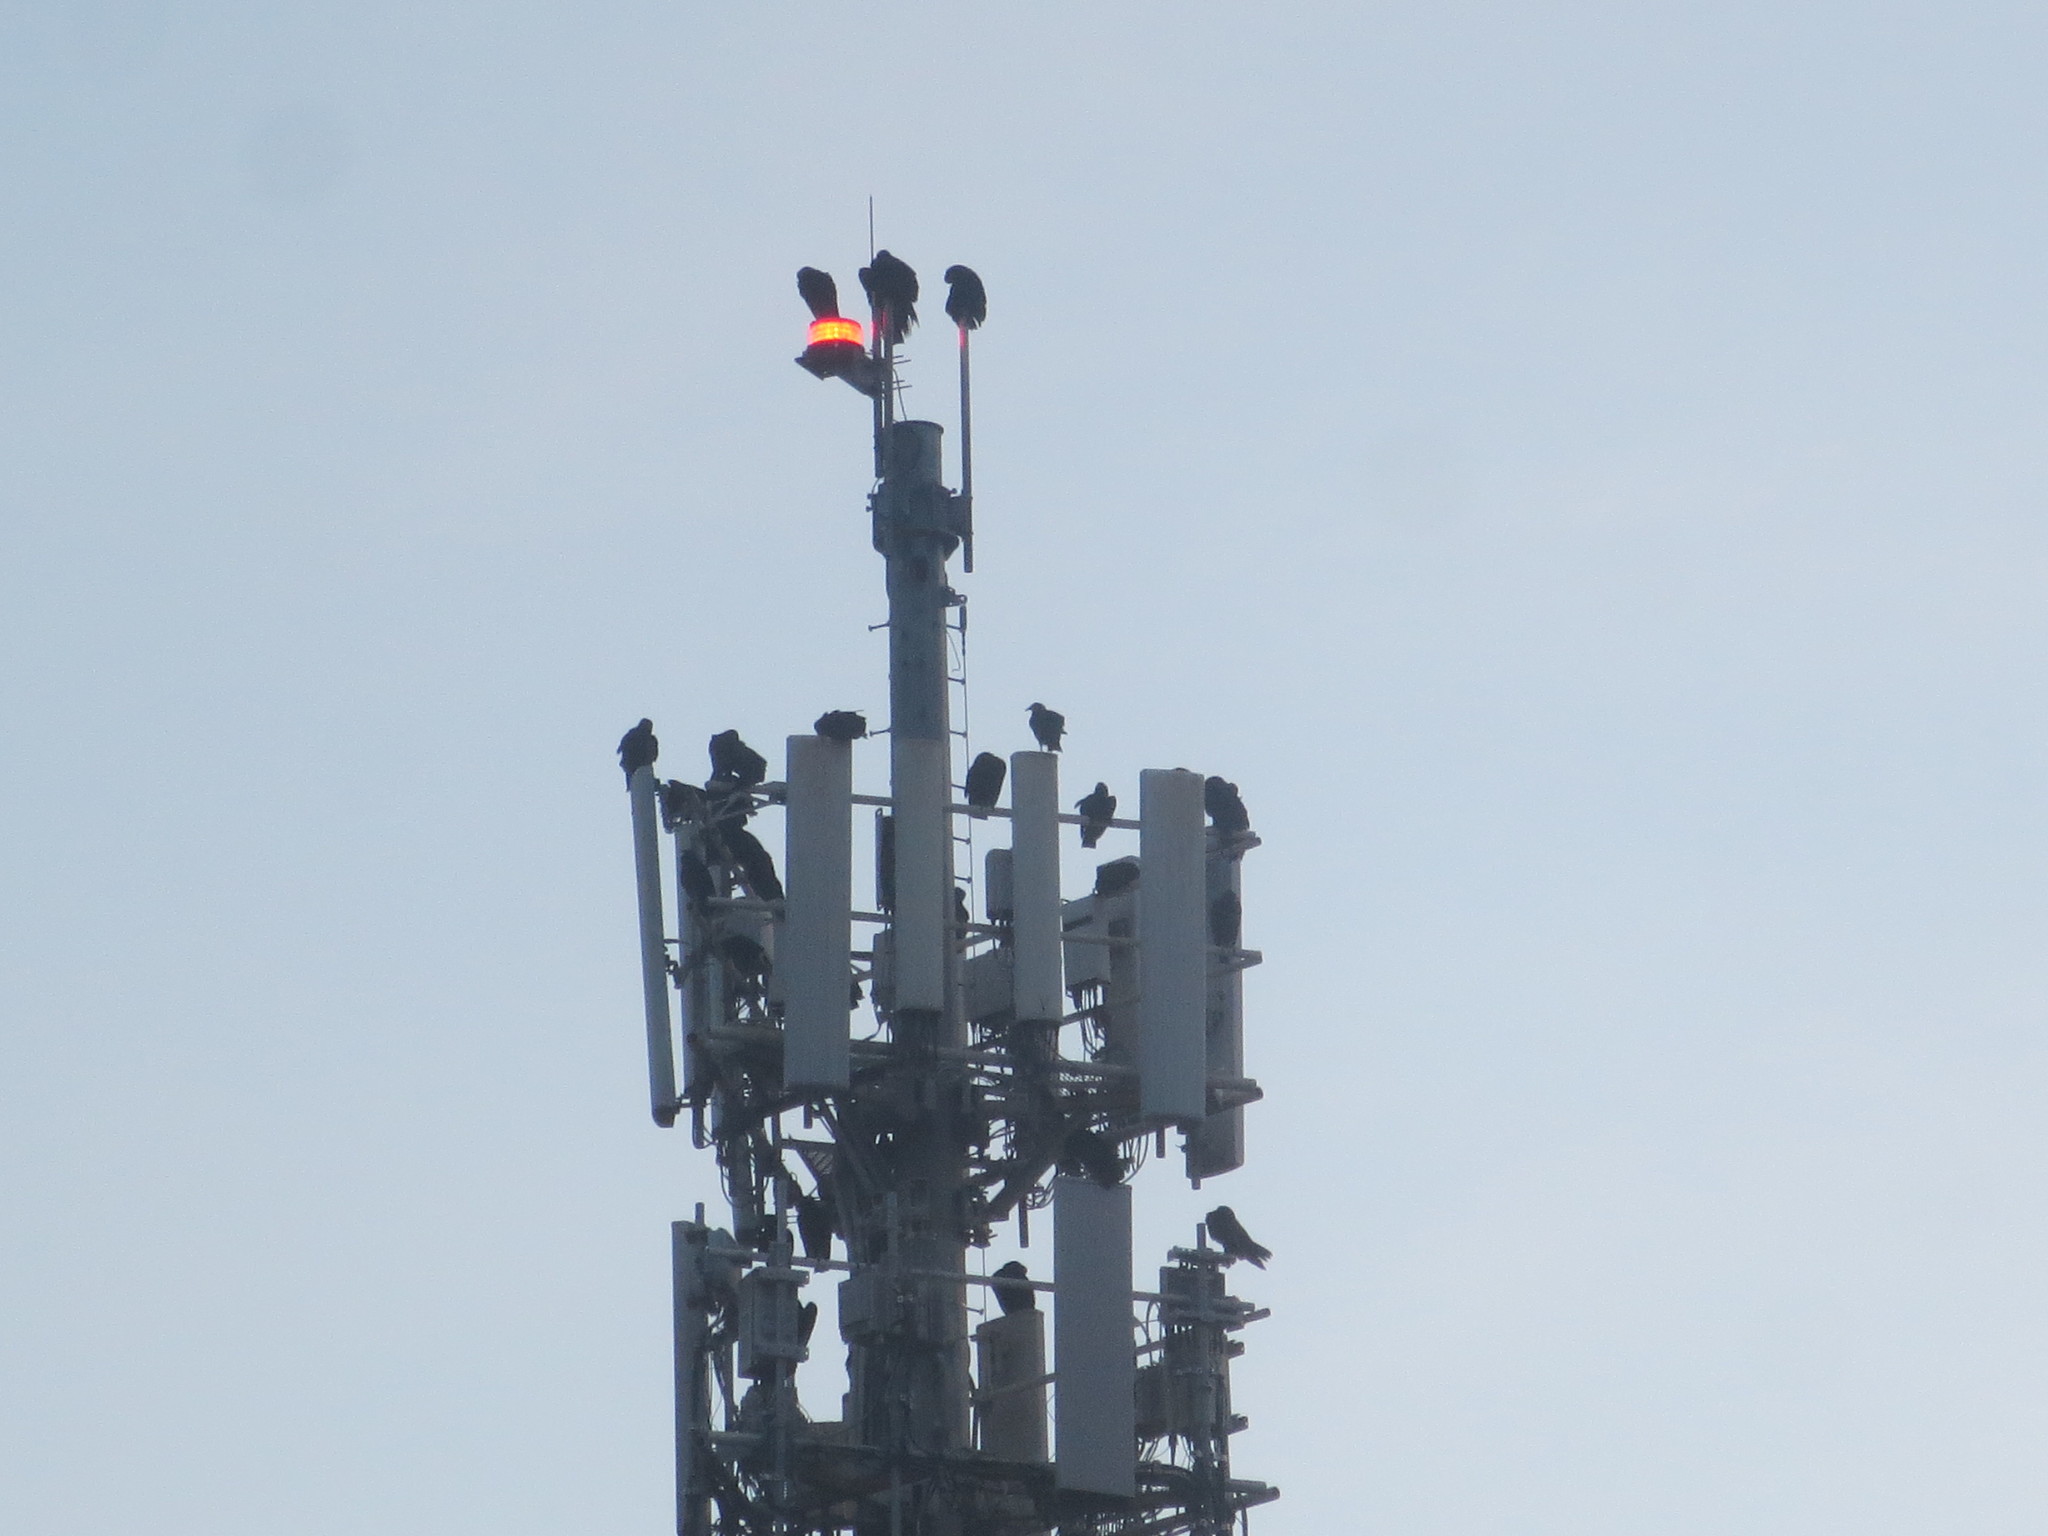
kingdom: Animalia
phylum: Chordata
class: Aves
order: Accipitriformes
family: Cathartidae
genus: Coragyps
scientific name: Coragyps atratus
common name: Black vulture
